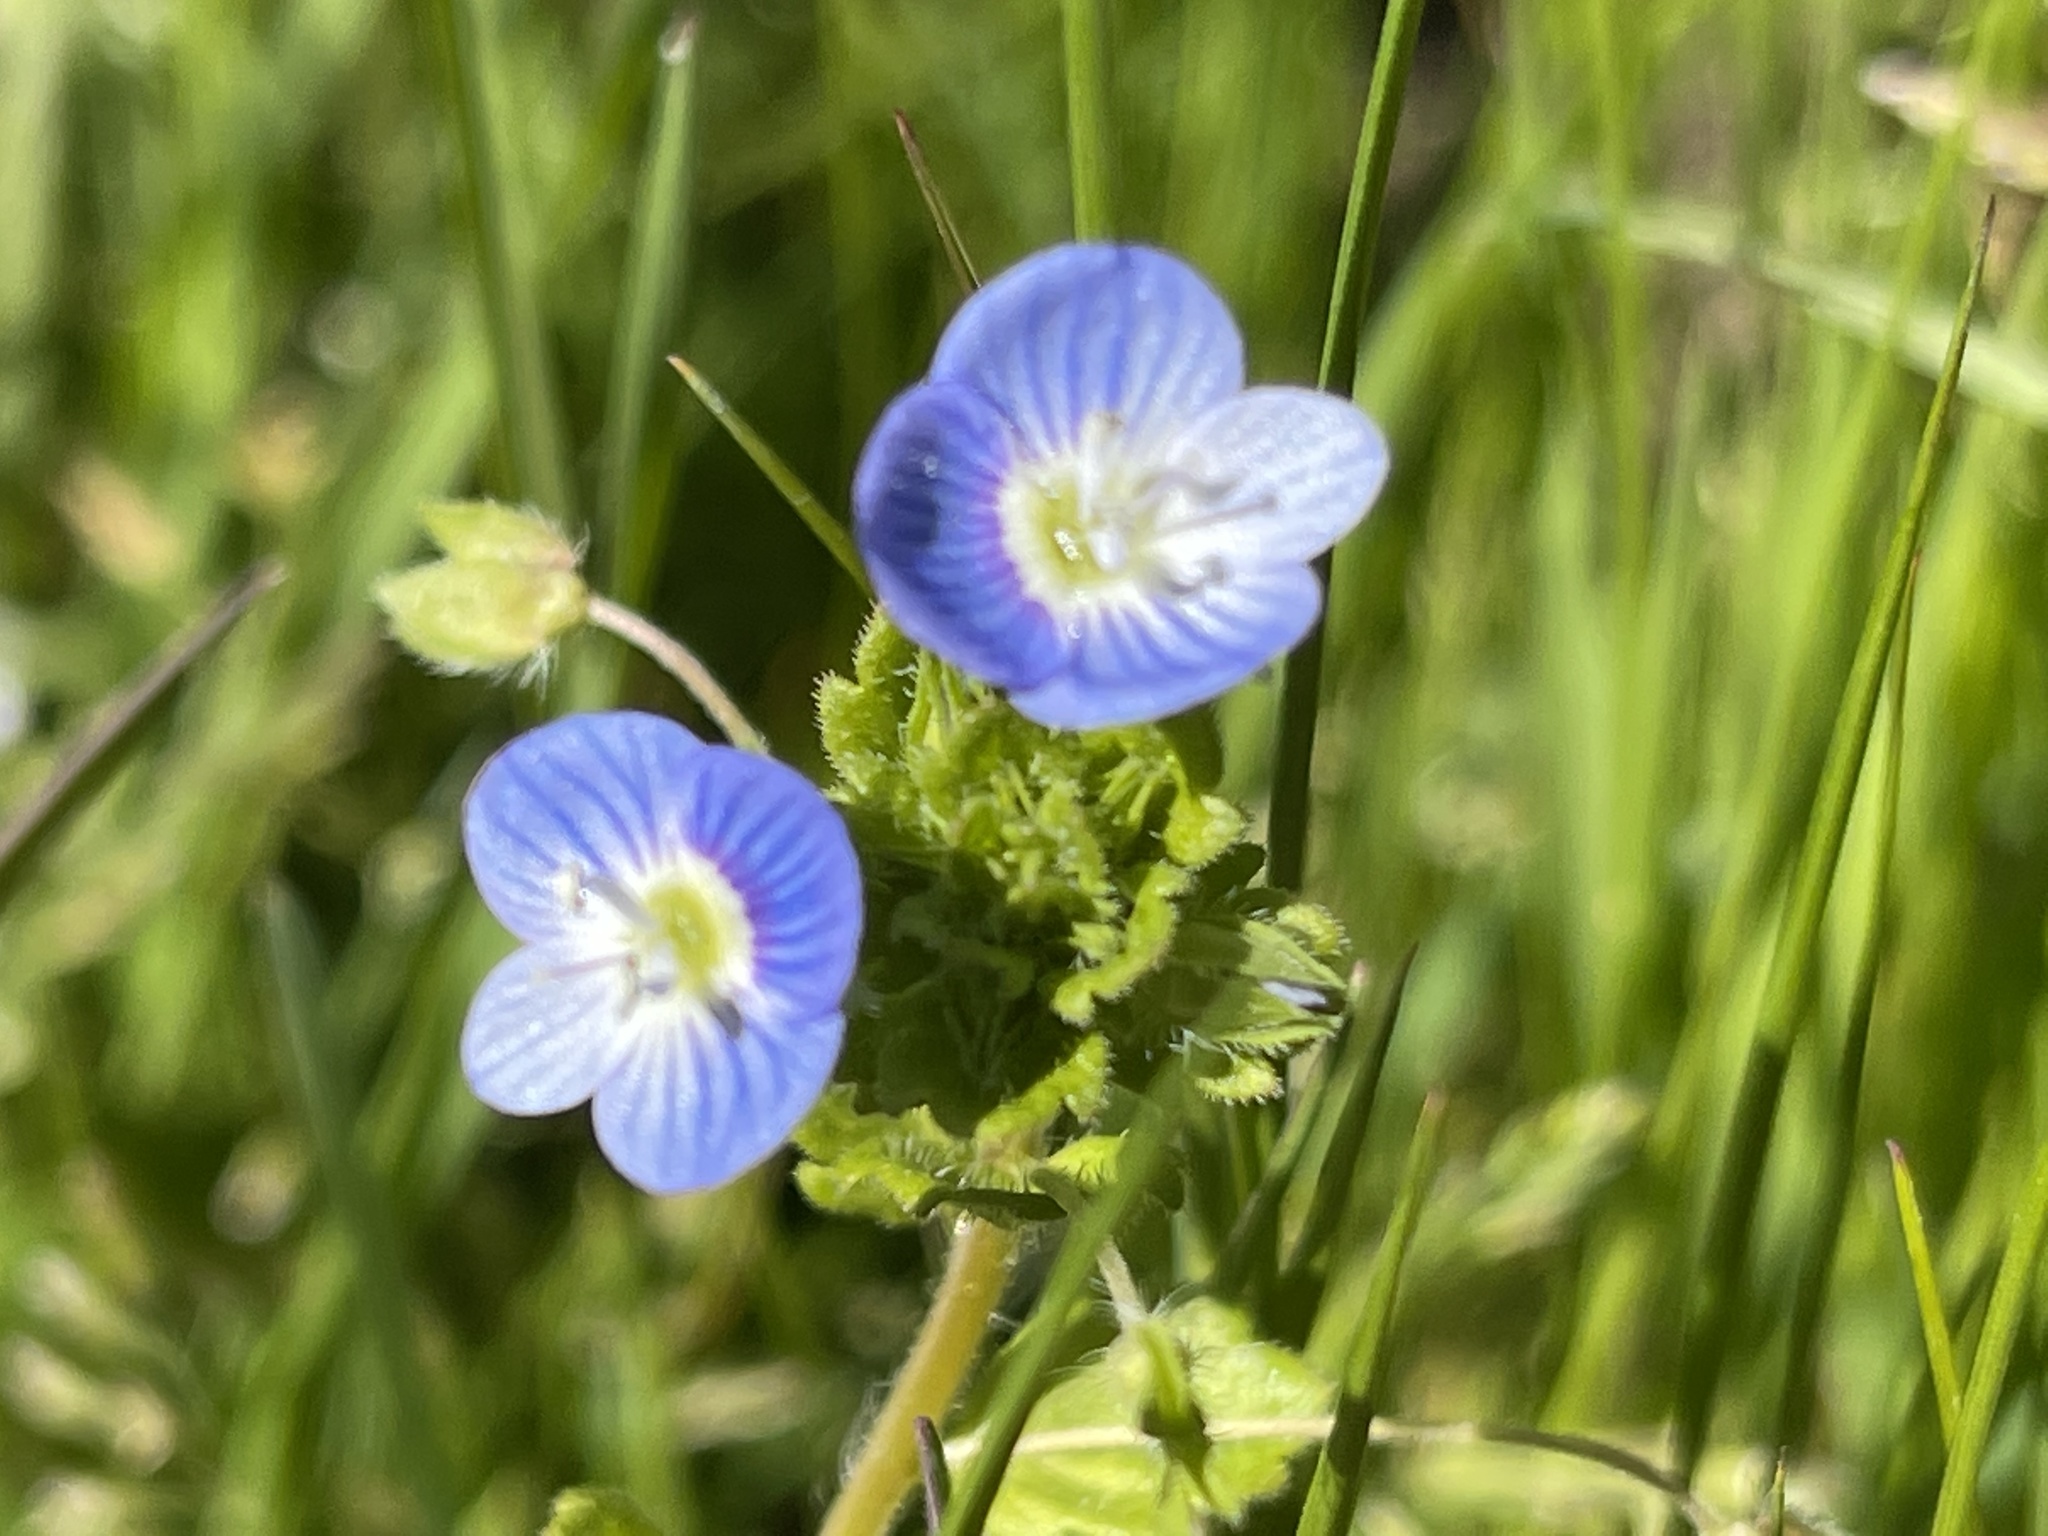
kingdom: Plantae
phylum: Tracheophyta
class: Magnoliopsida
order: Lamiales
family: Plantaginaceae
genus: Veronica
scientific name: Veronica persica
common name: Common field-speedwell
